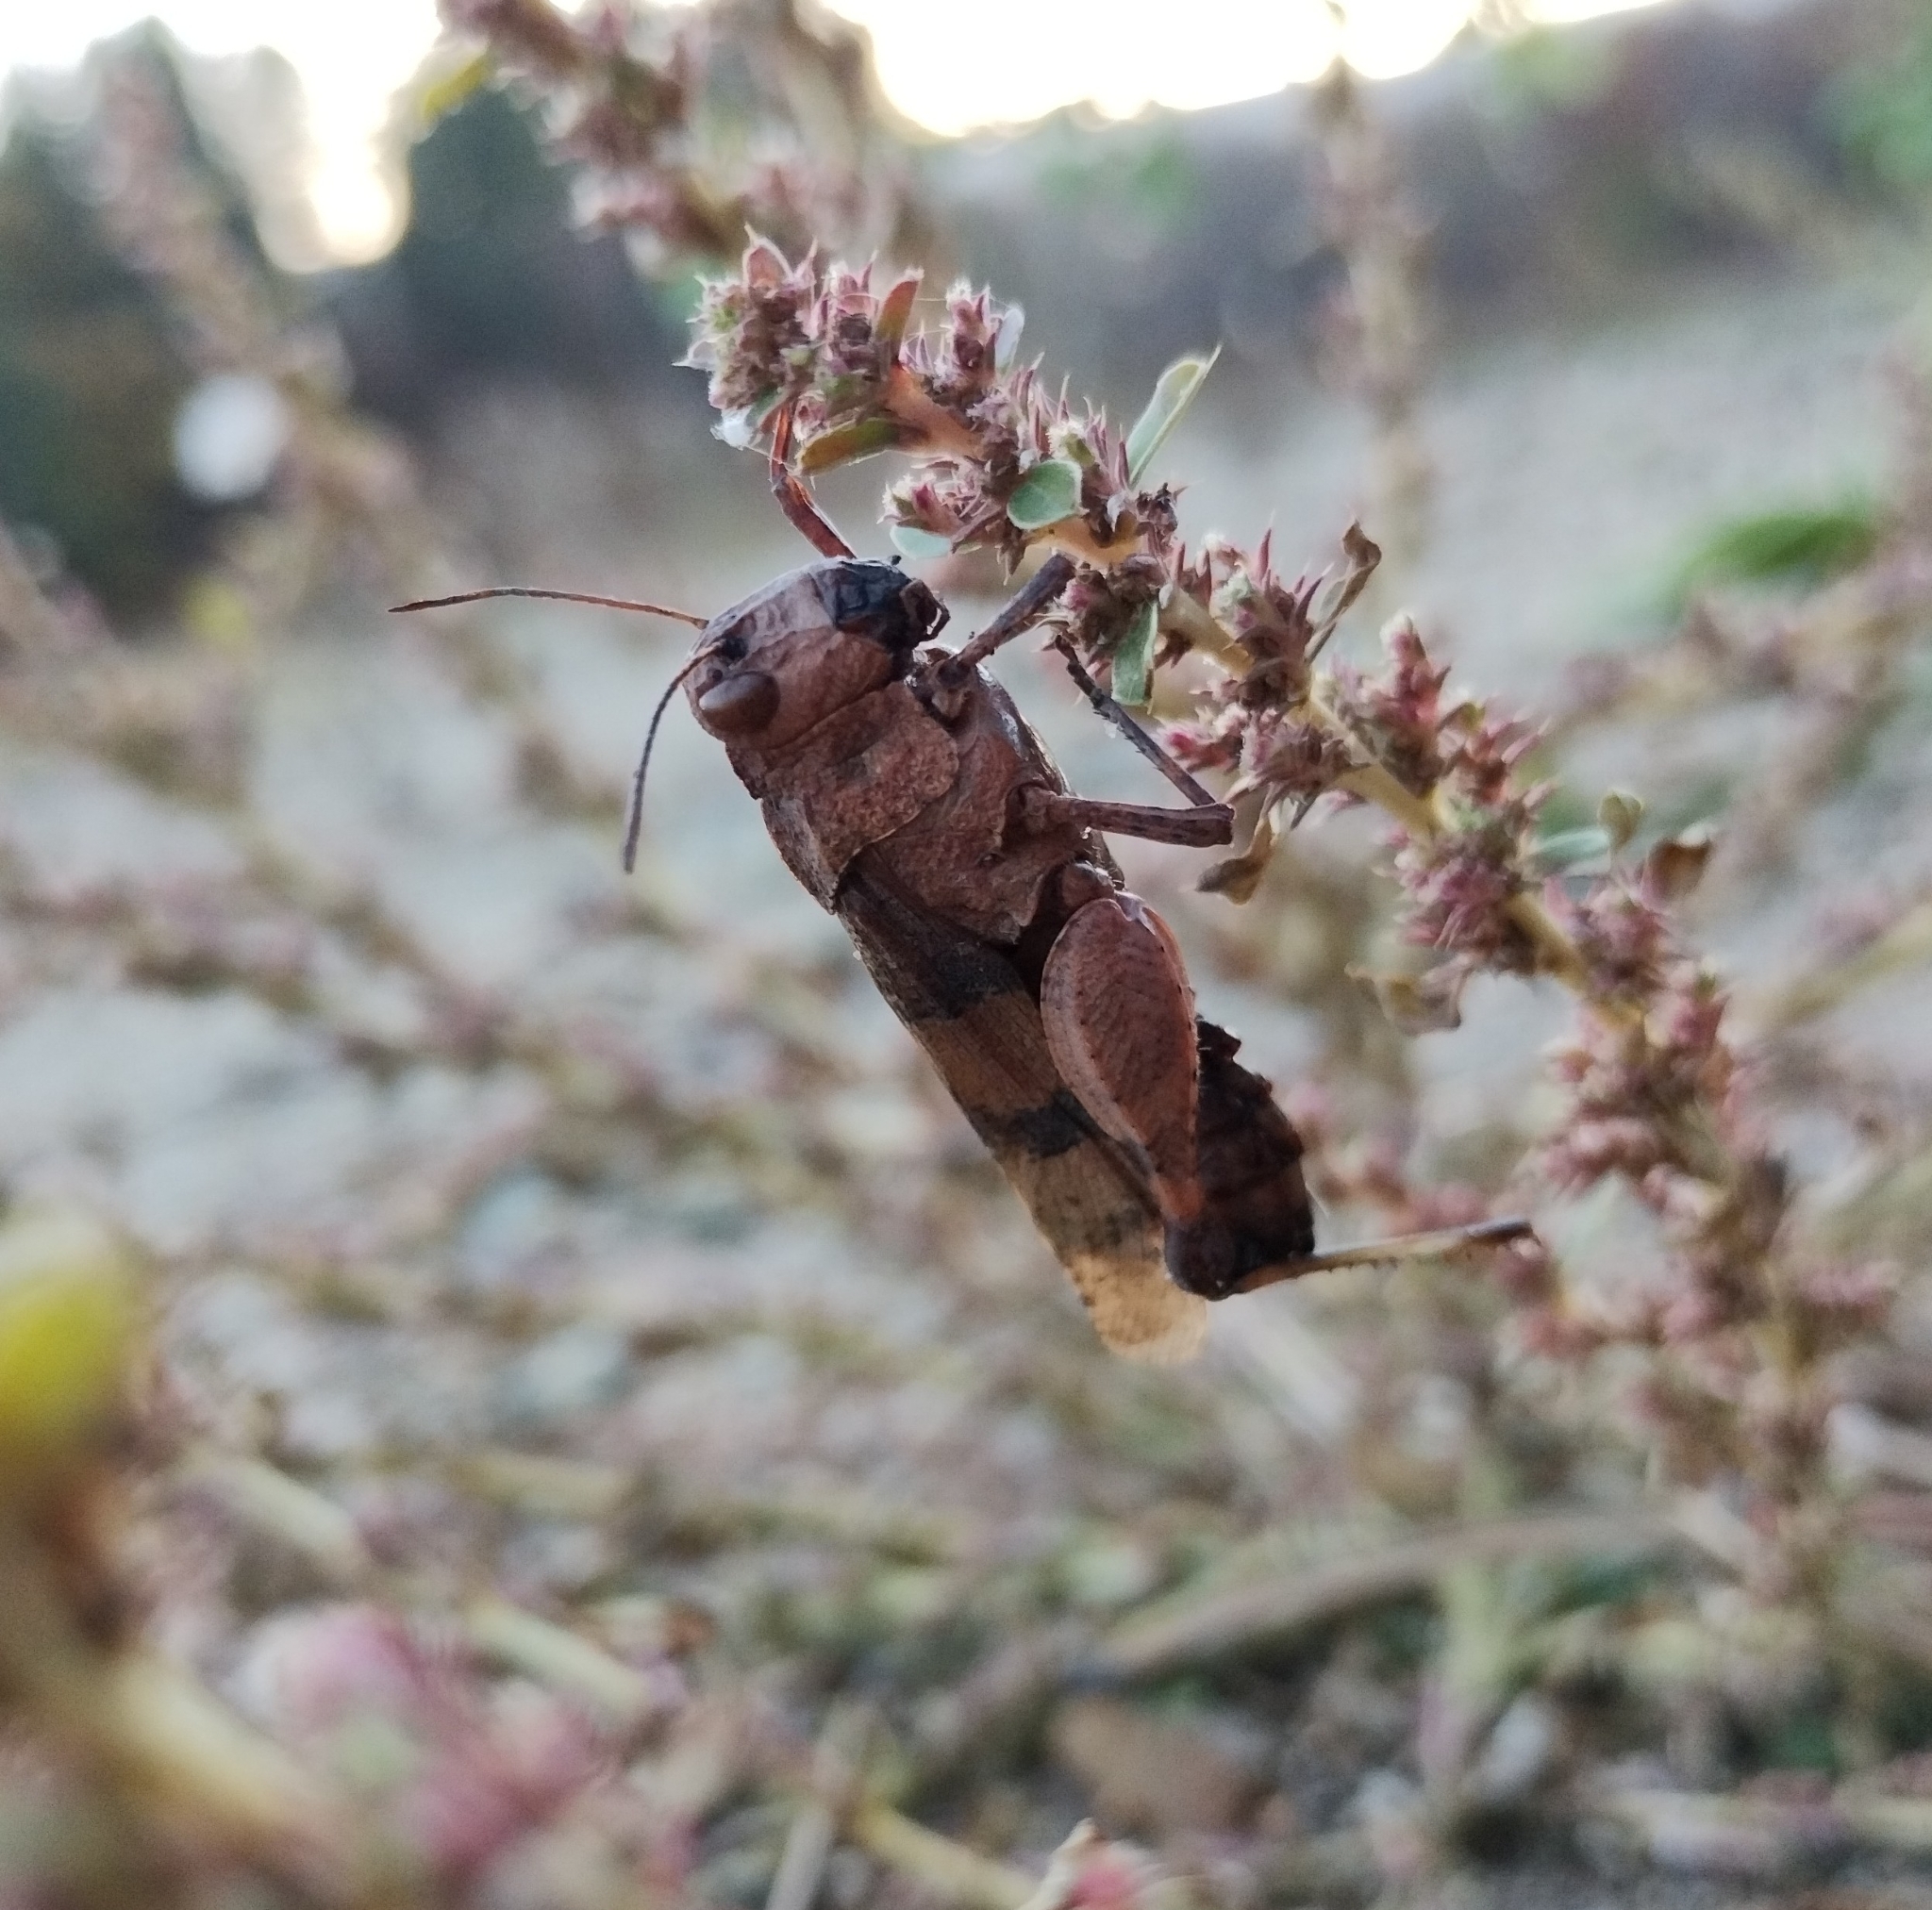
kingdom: Animalia
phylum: Arthropoda
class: Insecta
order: Orthoptera
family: Acrididae
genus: Oedipoda
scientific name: Oedipoda caerulescens
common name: Blue-winged grasshopper
